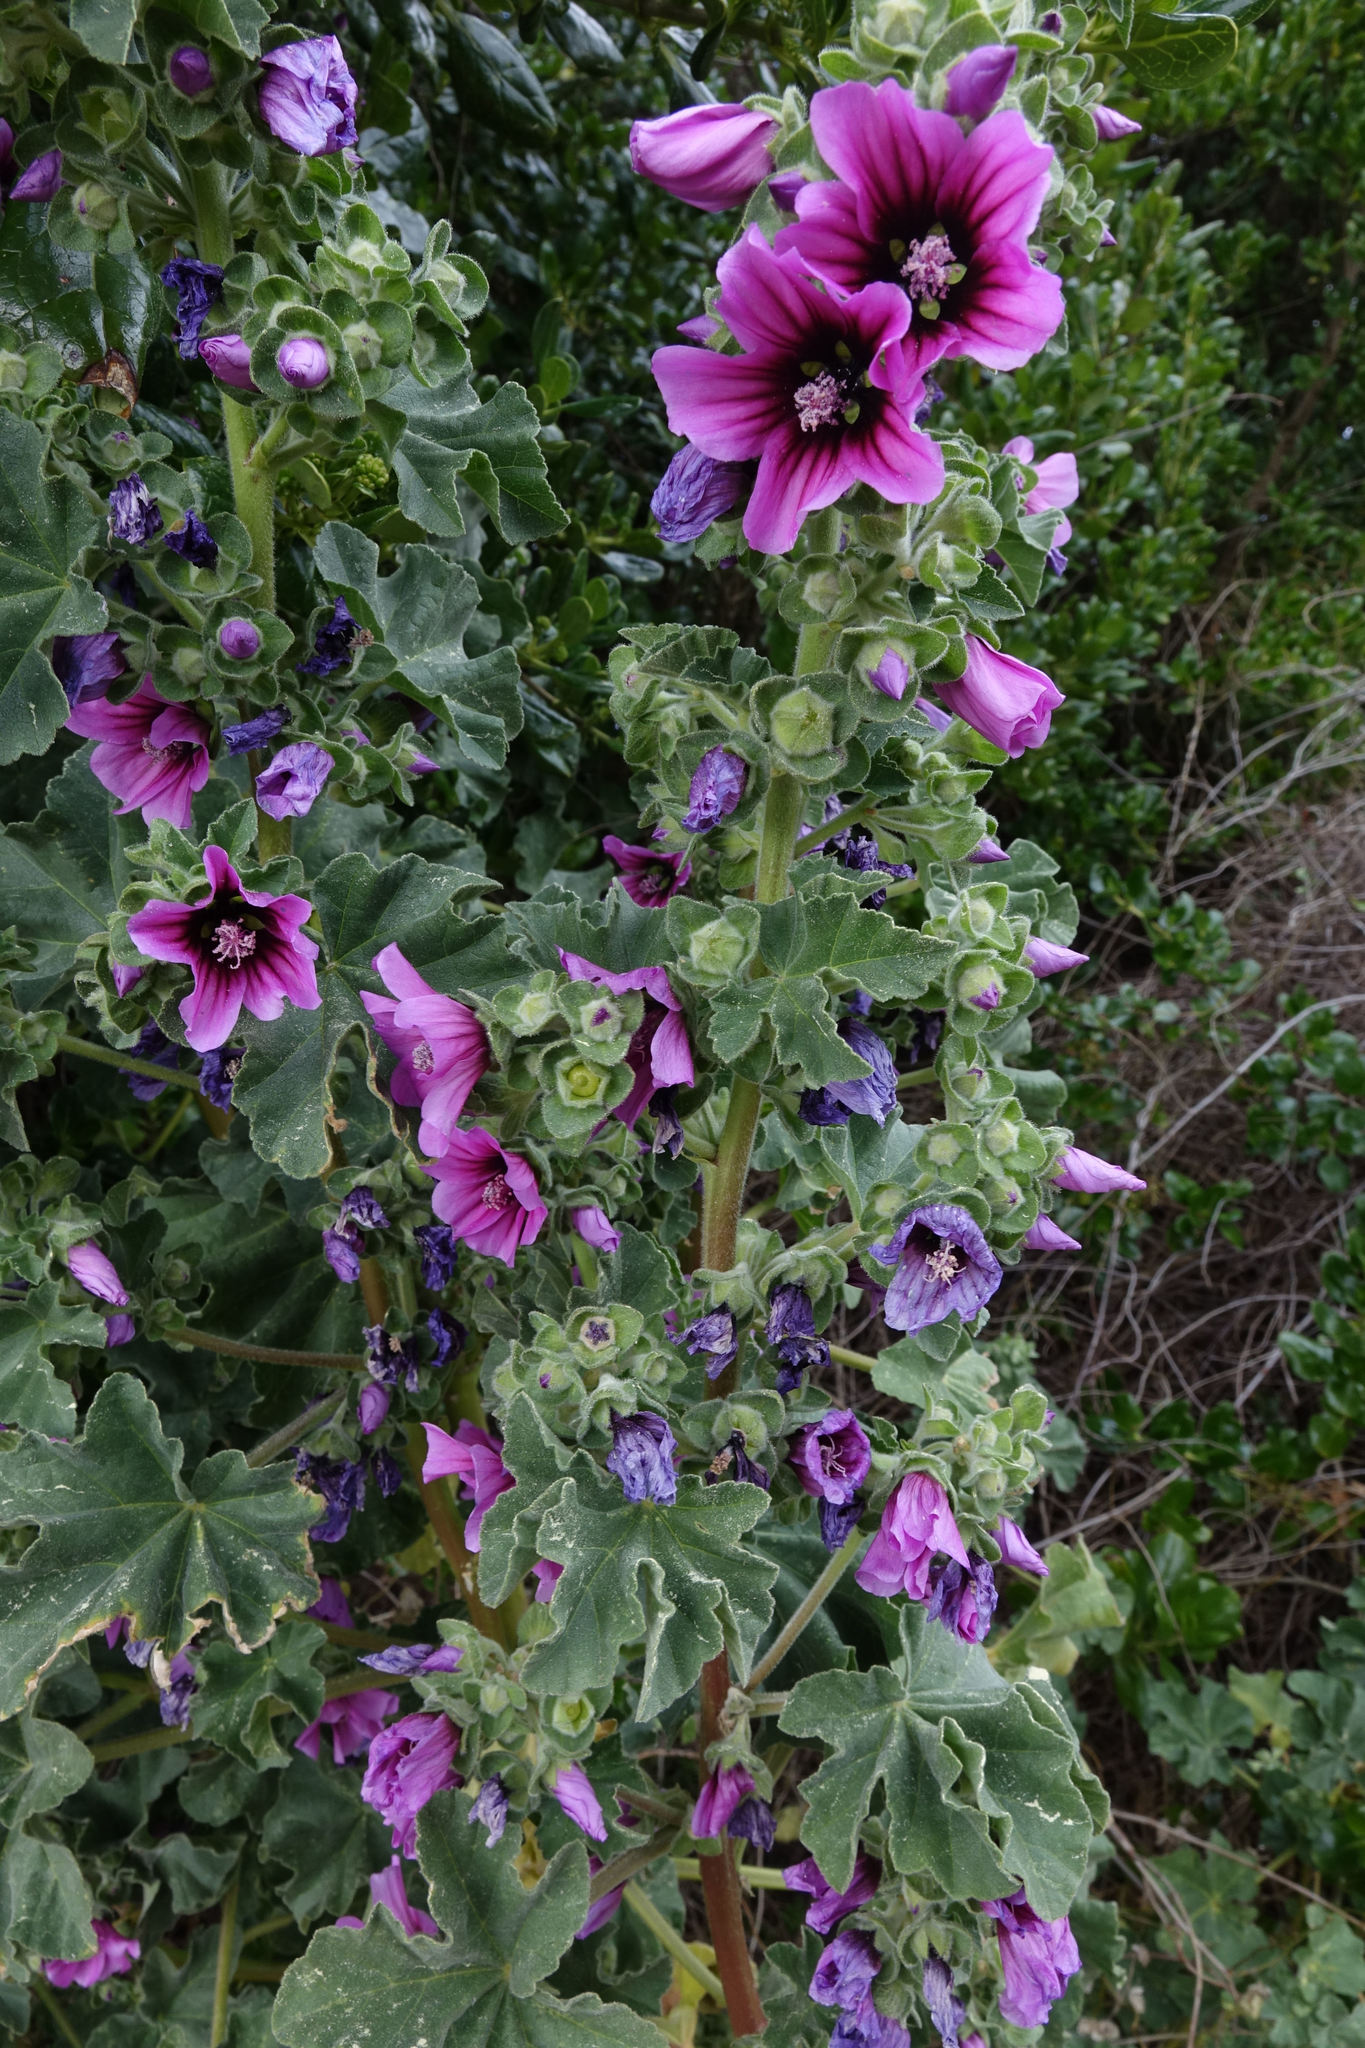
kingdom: Plantae
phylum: Tracheophyta
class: Magnoliopsida
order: Malvales
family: Malvaceae
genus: Malva
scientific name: Malva arborea
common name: Tree mallow
